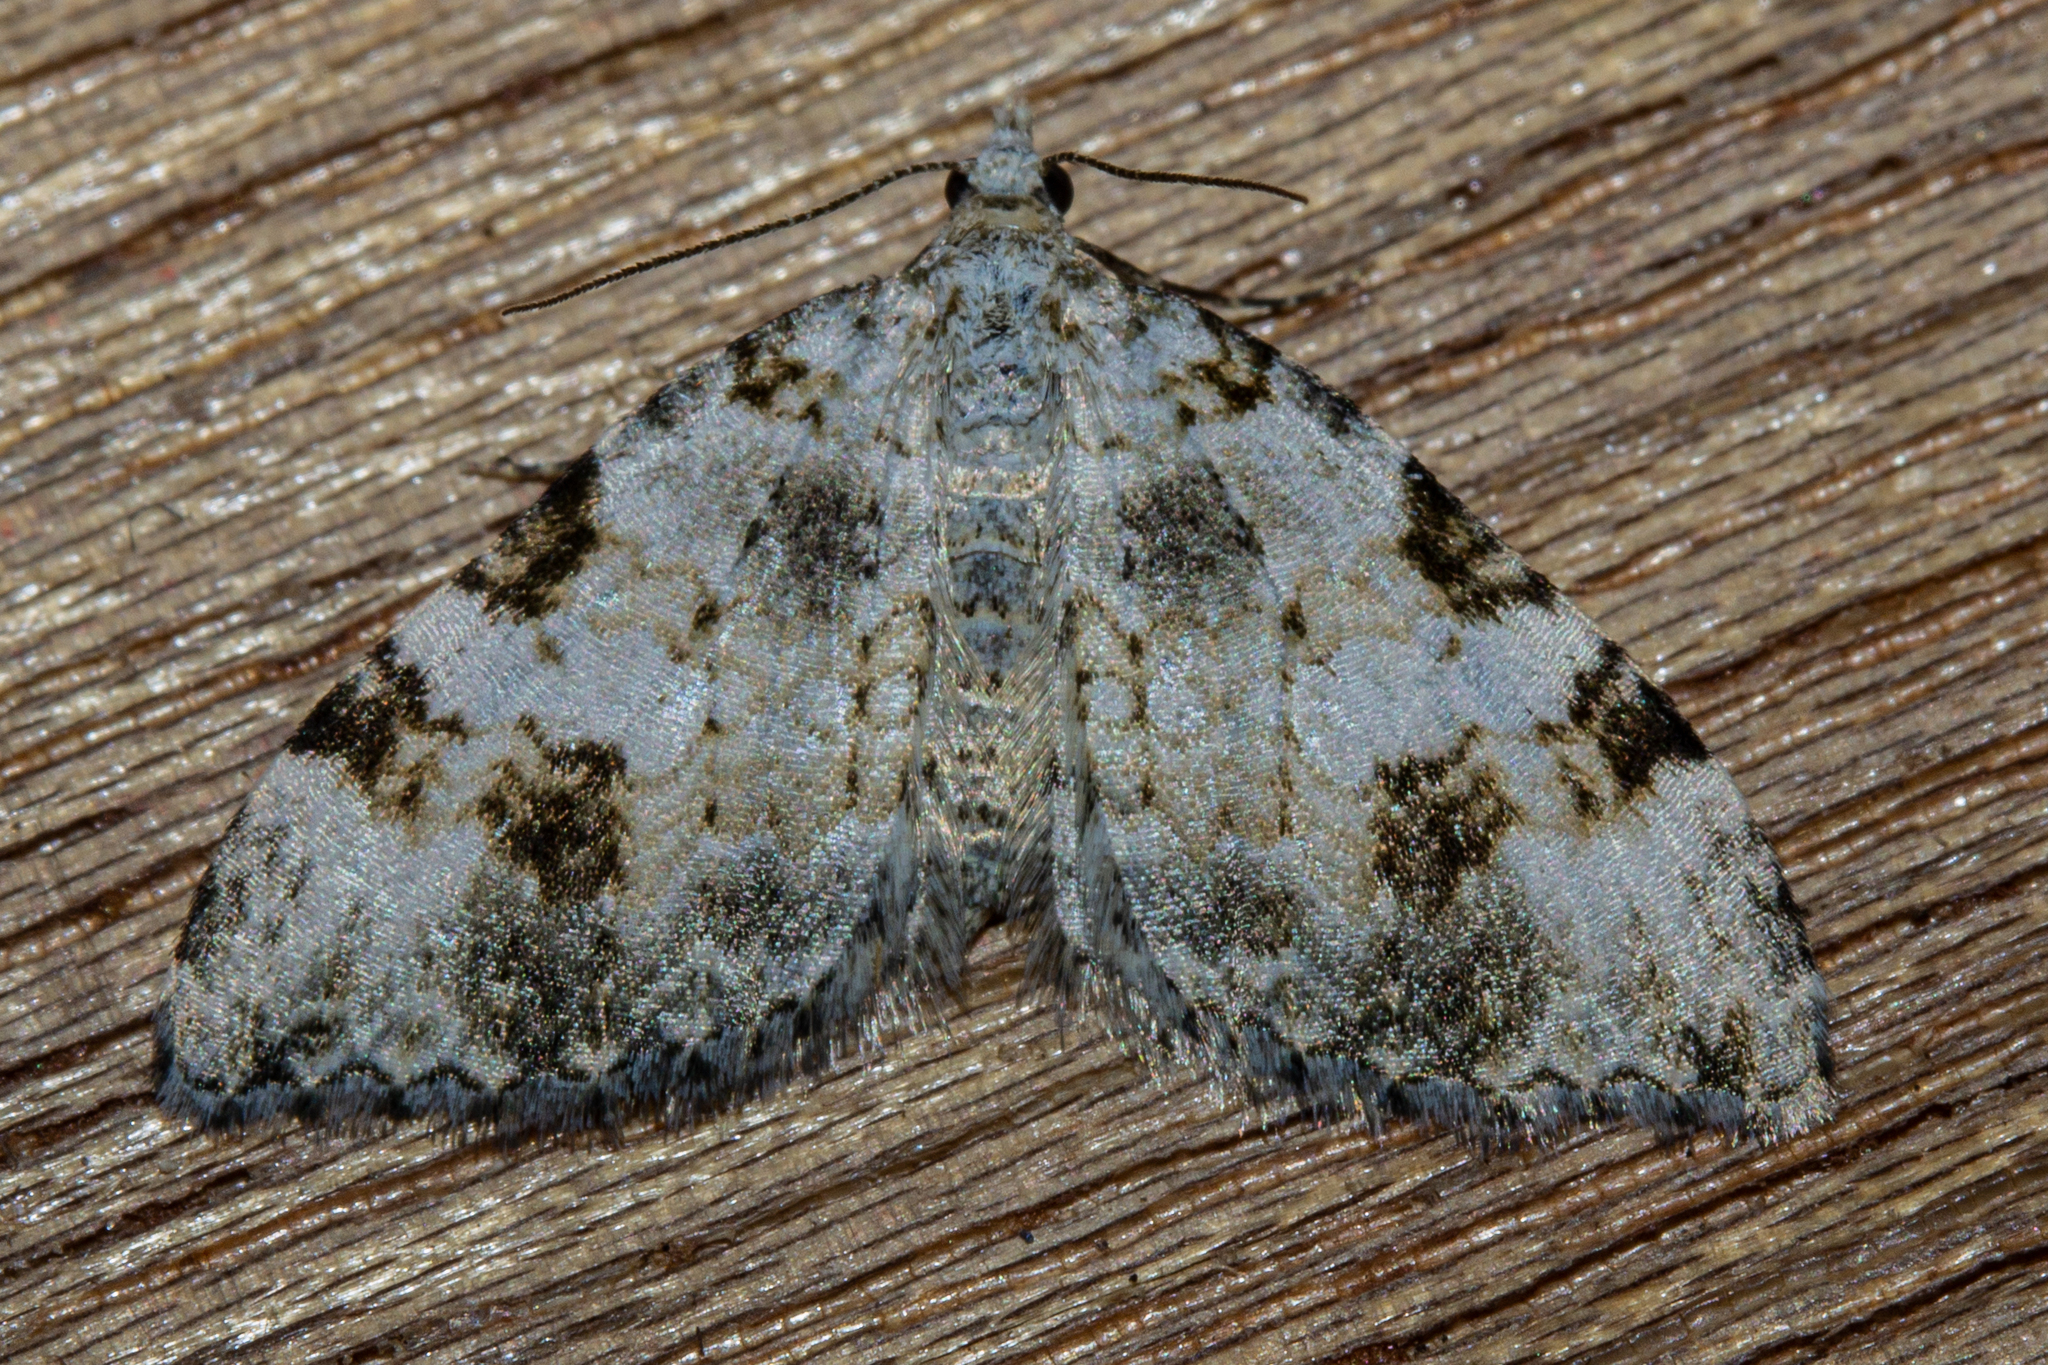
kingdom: Animalia
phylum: Arthropoda
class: Insecta
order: Lepidoptera
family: Geometridae
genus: Helastia
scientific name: Helastia alba
